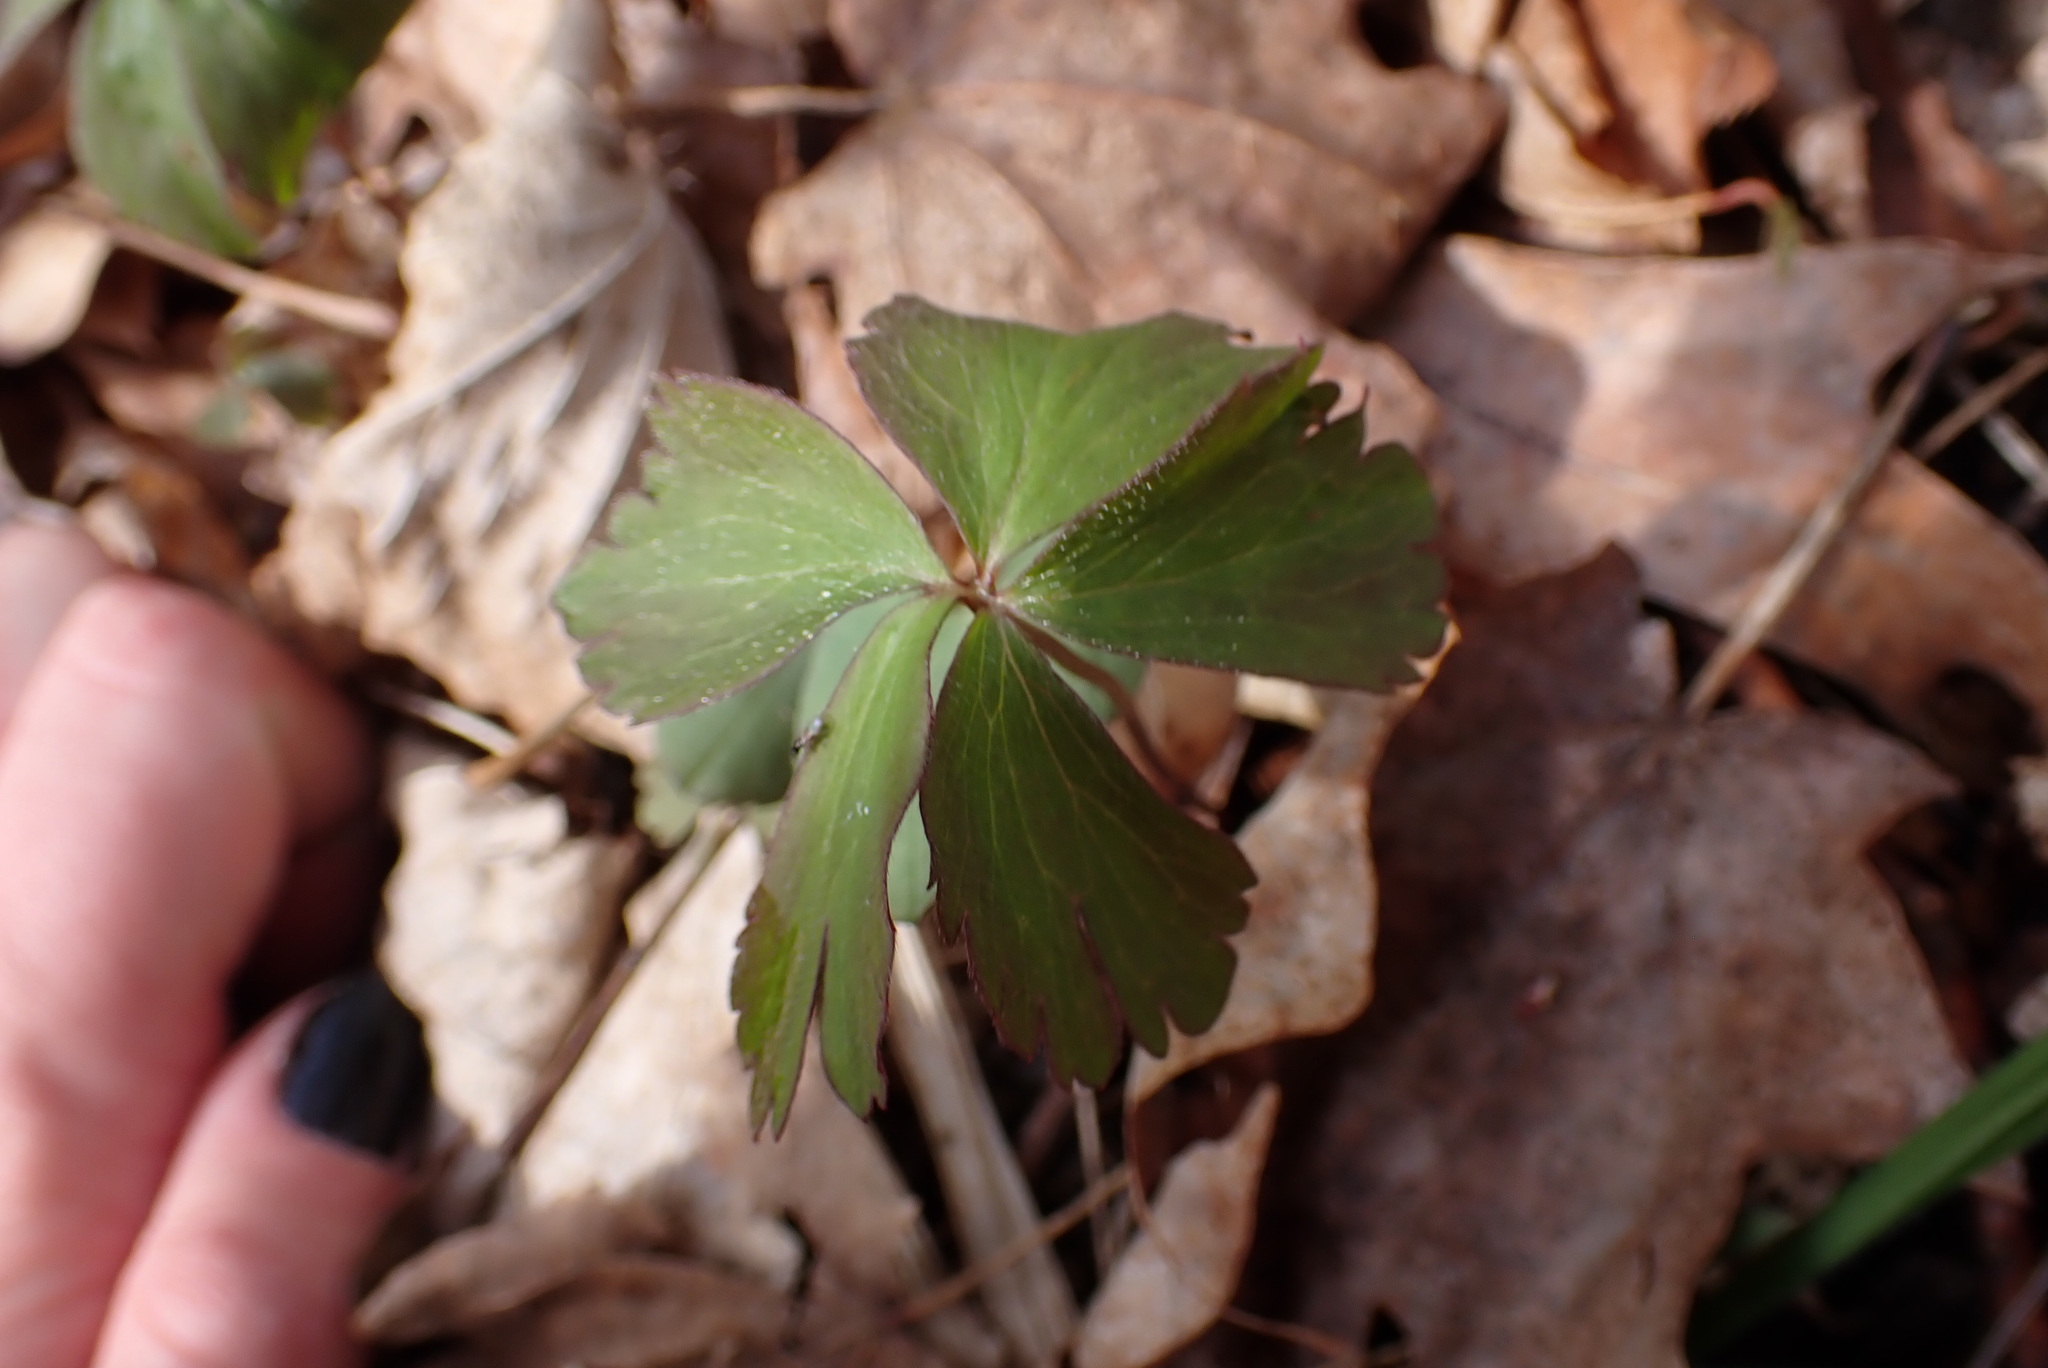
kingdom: Plantae
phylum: Tracheophyta
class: Magnoliopsida
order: Ranunculales
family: Ranunculaceae
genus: Anemone
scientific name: Anemone quinquefolia
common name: Wood anemone
